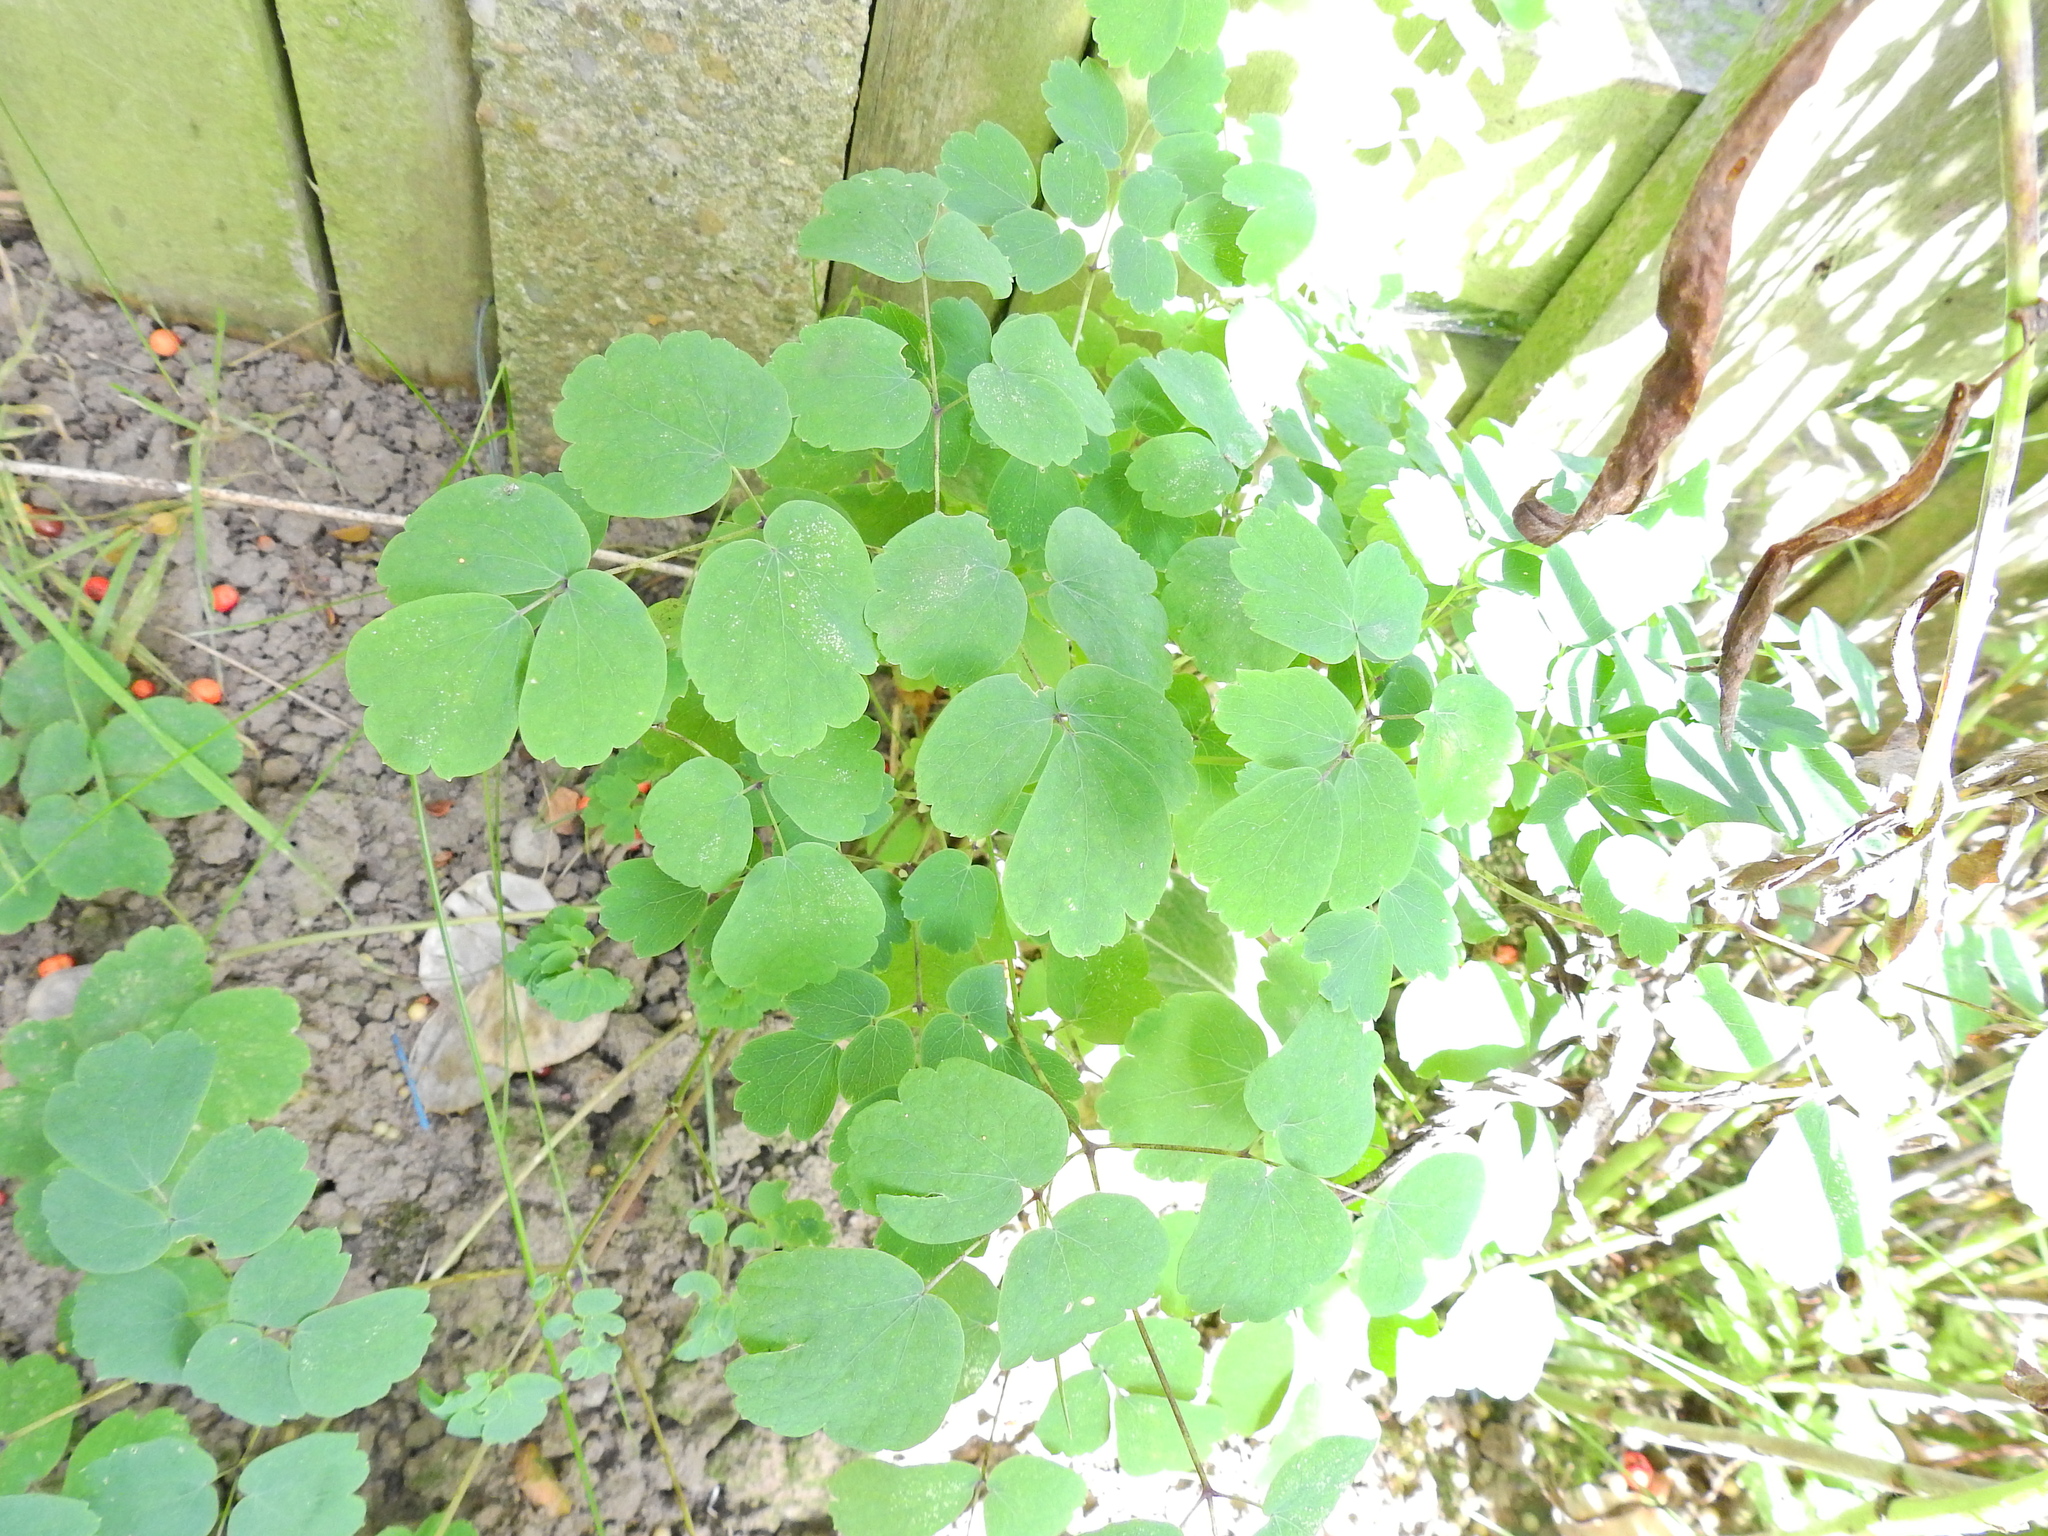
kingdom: Plantae
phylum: Tracheophyta
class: Magnoliopsida
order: Ranunculales
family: Ranunculaceae
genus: Aquilegia
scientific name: Aquilegia vulgaris
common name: Columbine
